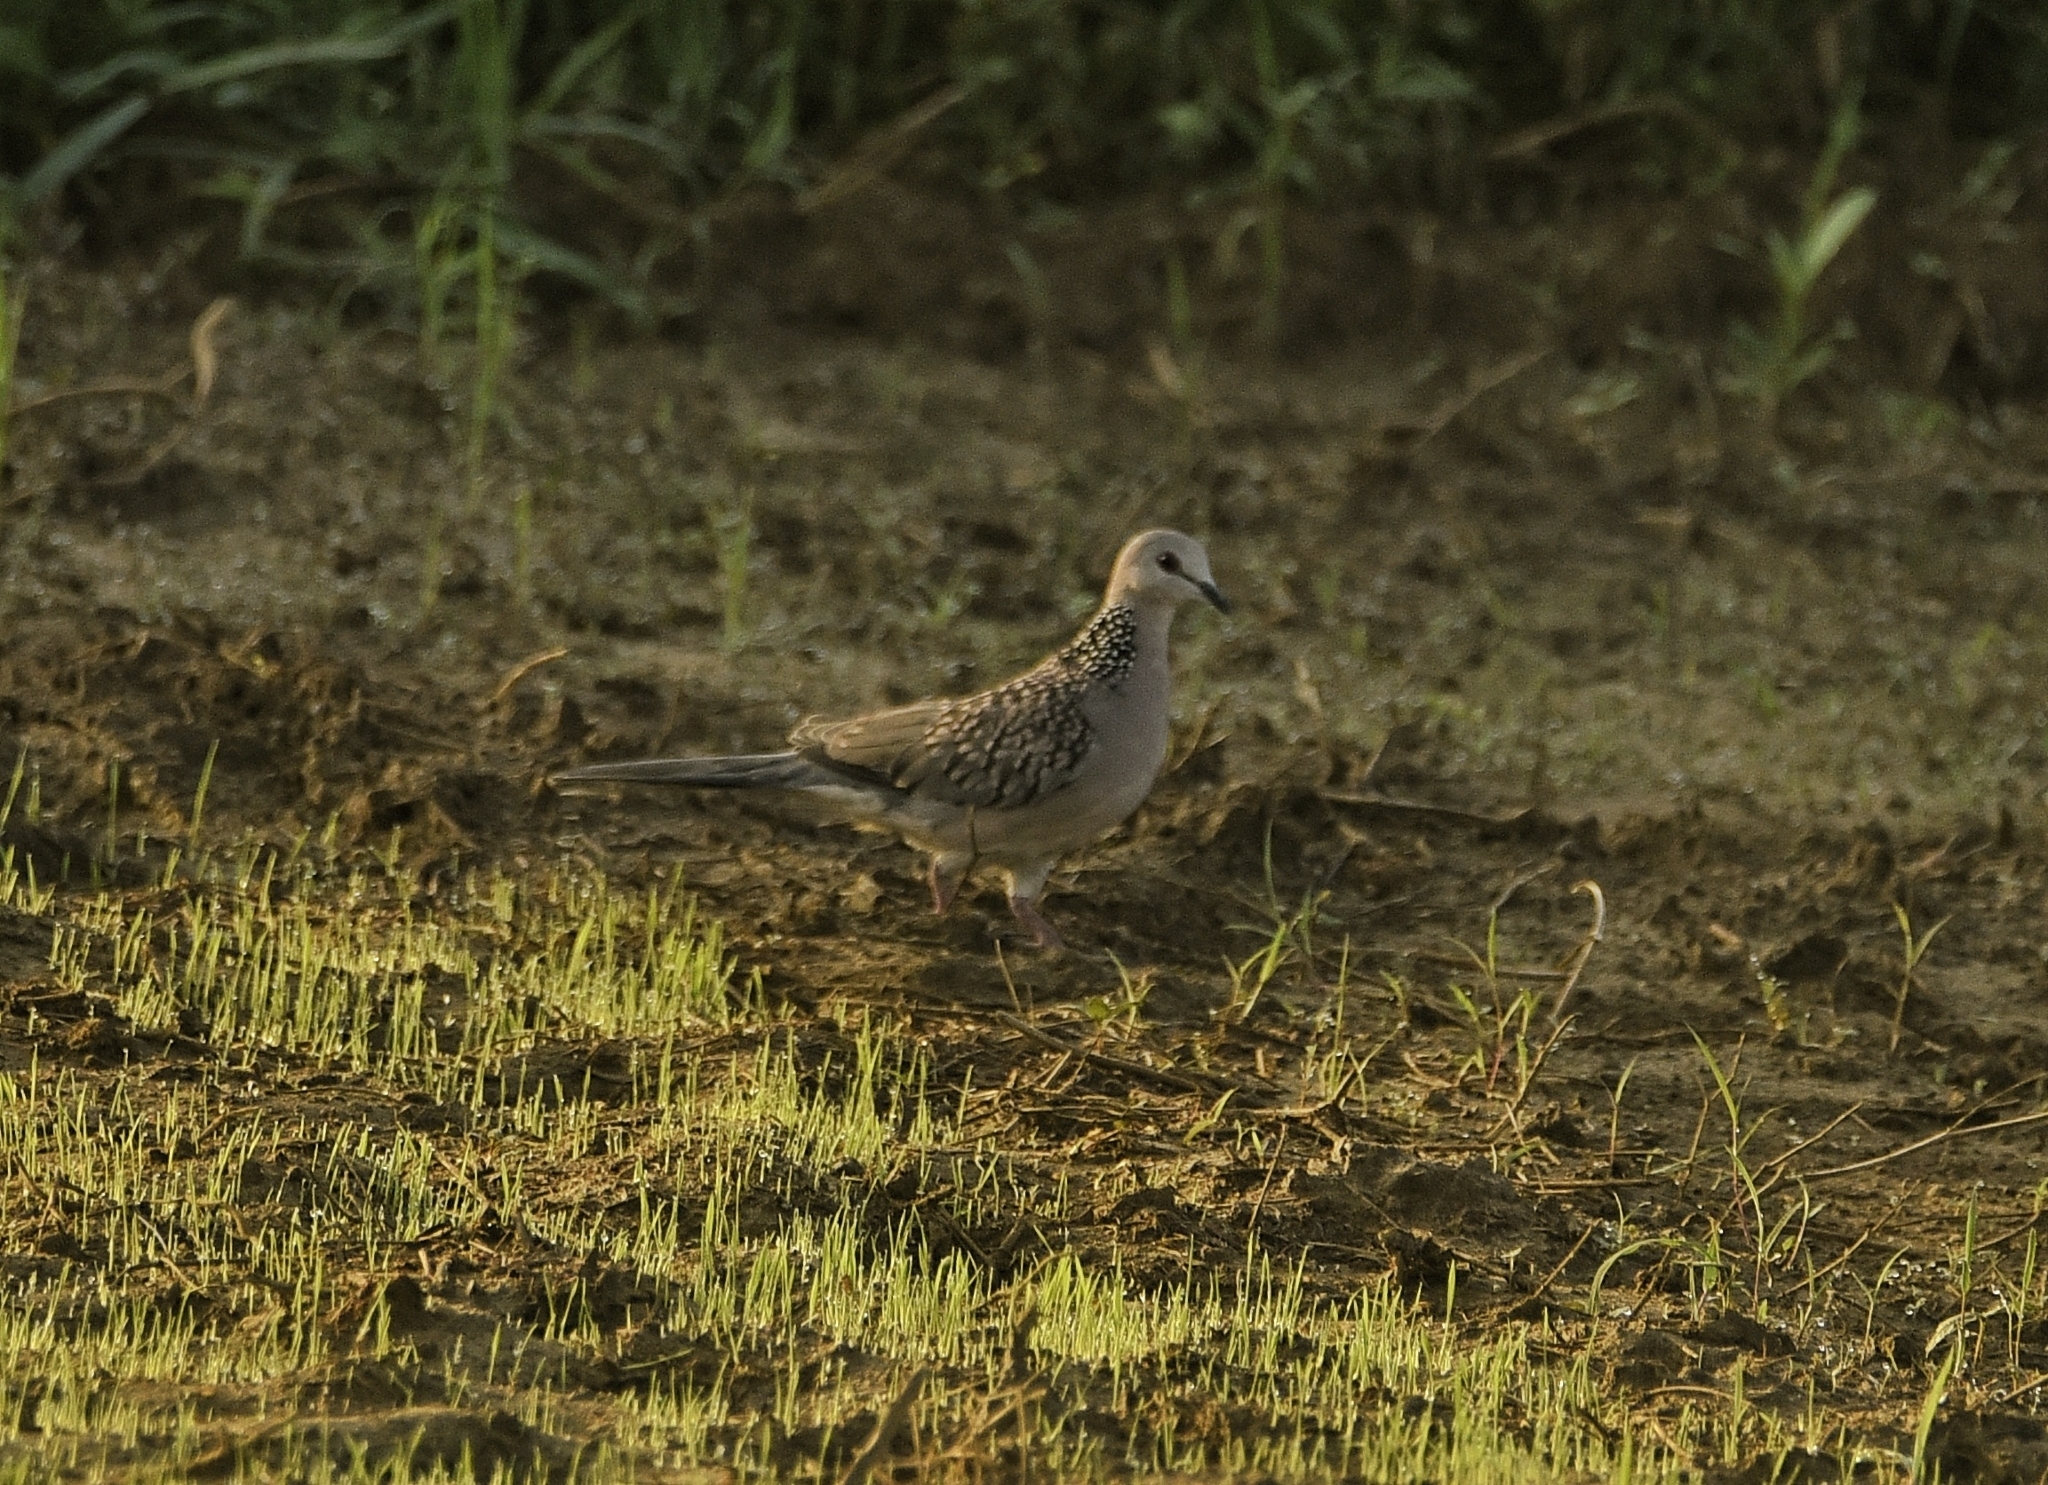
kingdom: Animalia
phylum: Chordata
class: Aves
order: Columbiformes
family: Columbidae
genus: Spilopelia
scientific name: Spilopelia chinensis
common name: Spotted dove
